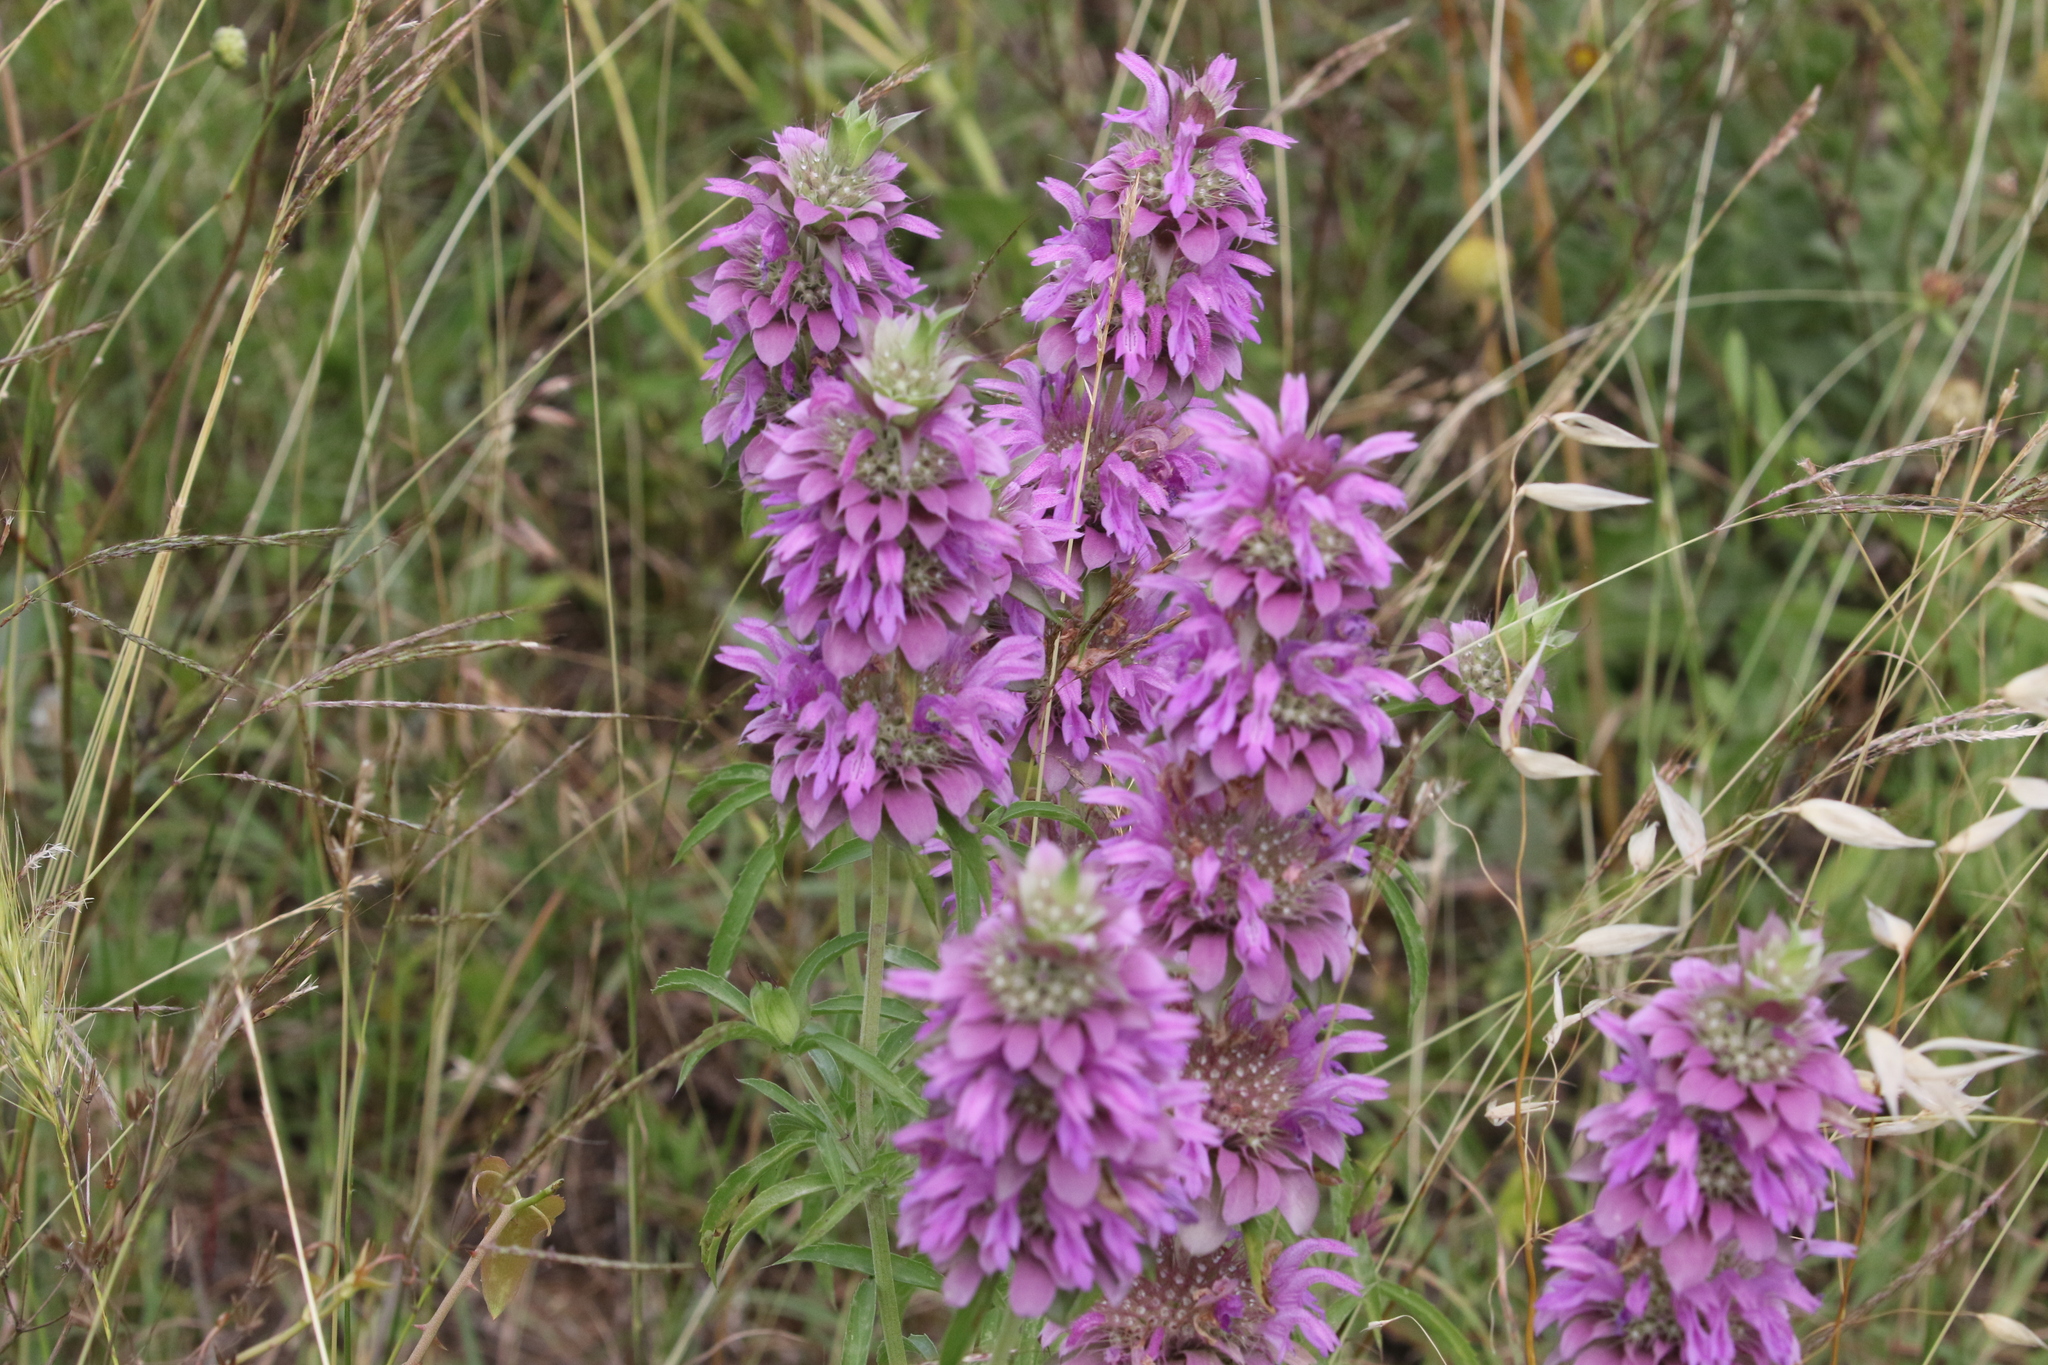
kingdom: Plantae
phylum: Tracheophyta
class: Magnoliopsida
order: Lamiales
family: Lamiaceae
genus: Monarda
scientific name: Monarda citriodora
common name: Lemon beebalm
